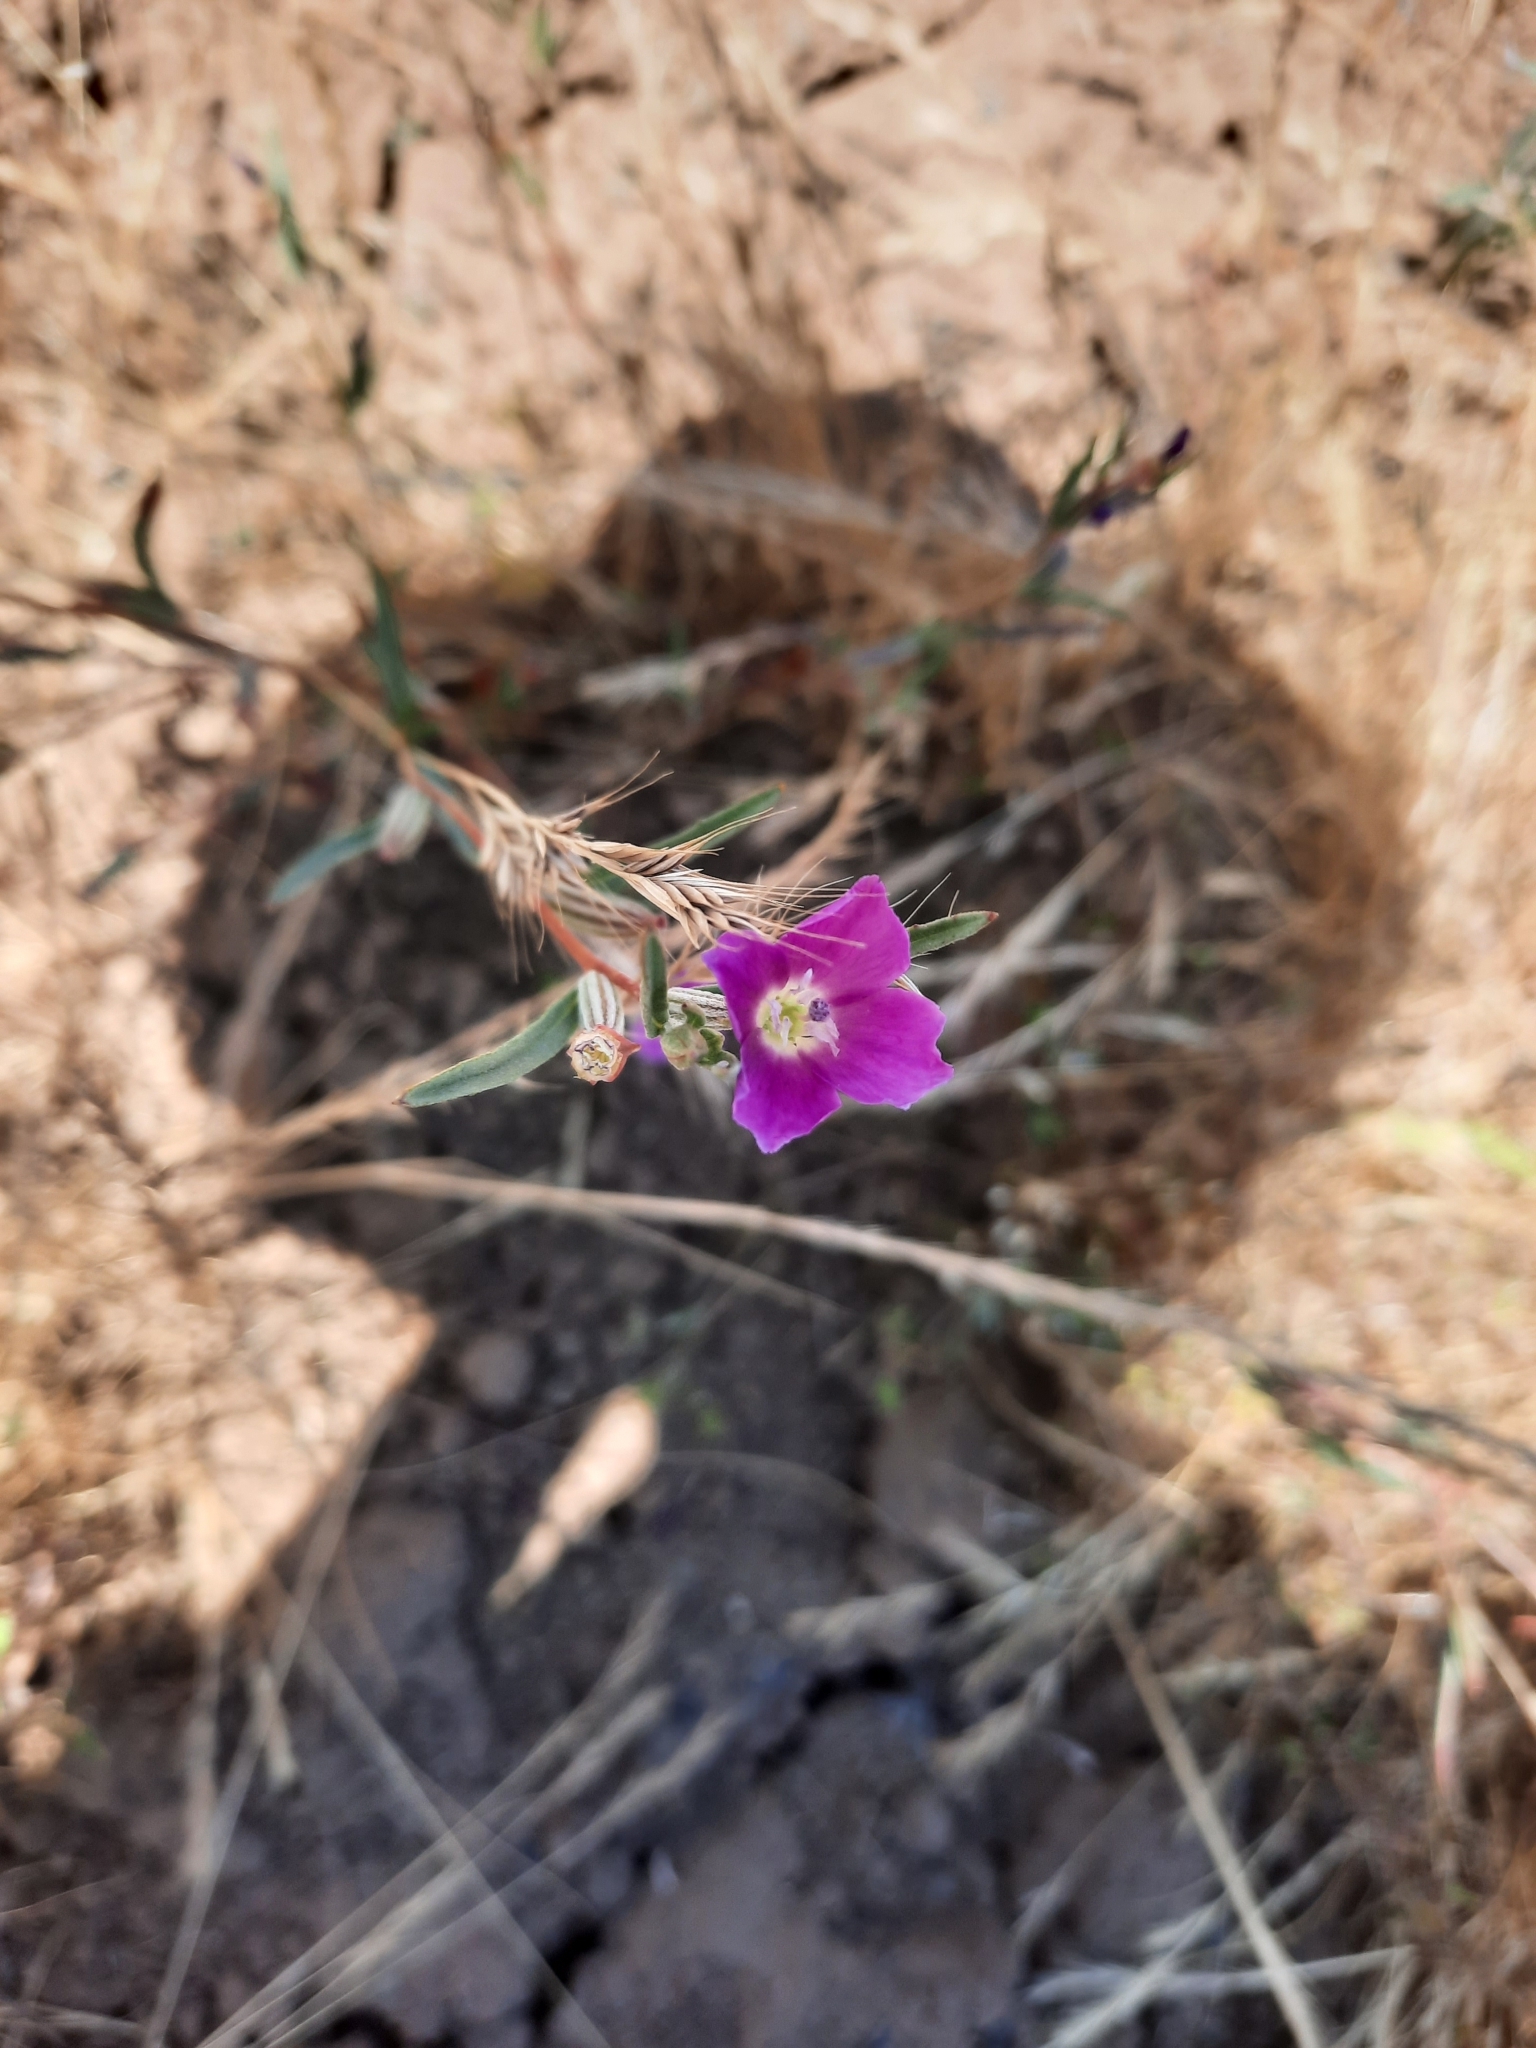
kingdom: Plantae
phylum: Tracheophyta
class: Magnoliopsida
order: Myrtales
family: Onagraceae
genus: Clarkia
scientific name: Clarkia purpurea
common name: Purple clarkia
